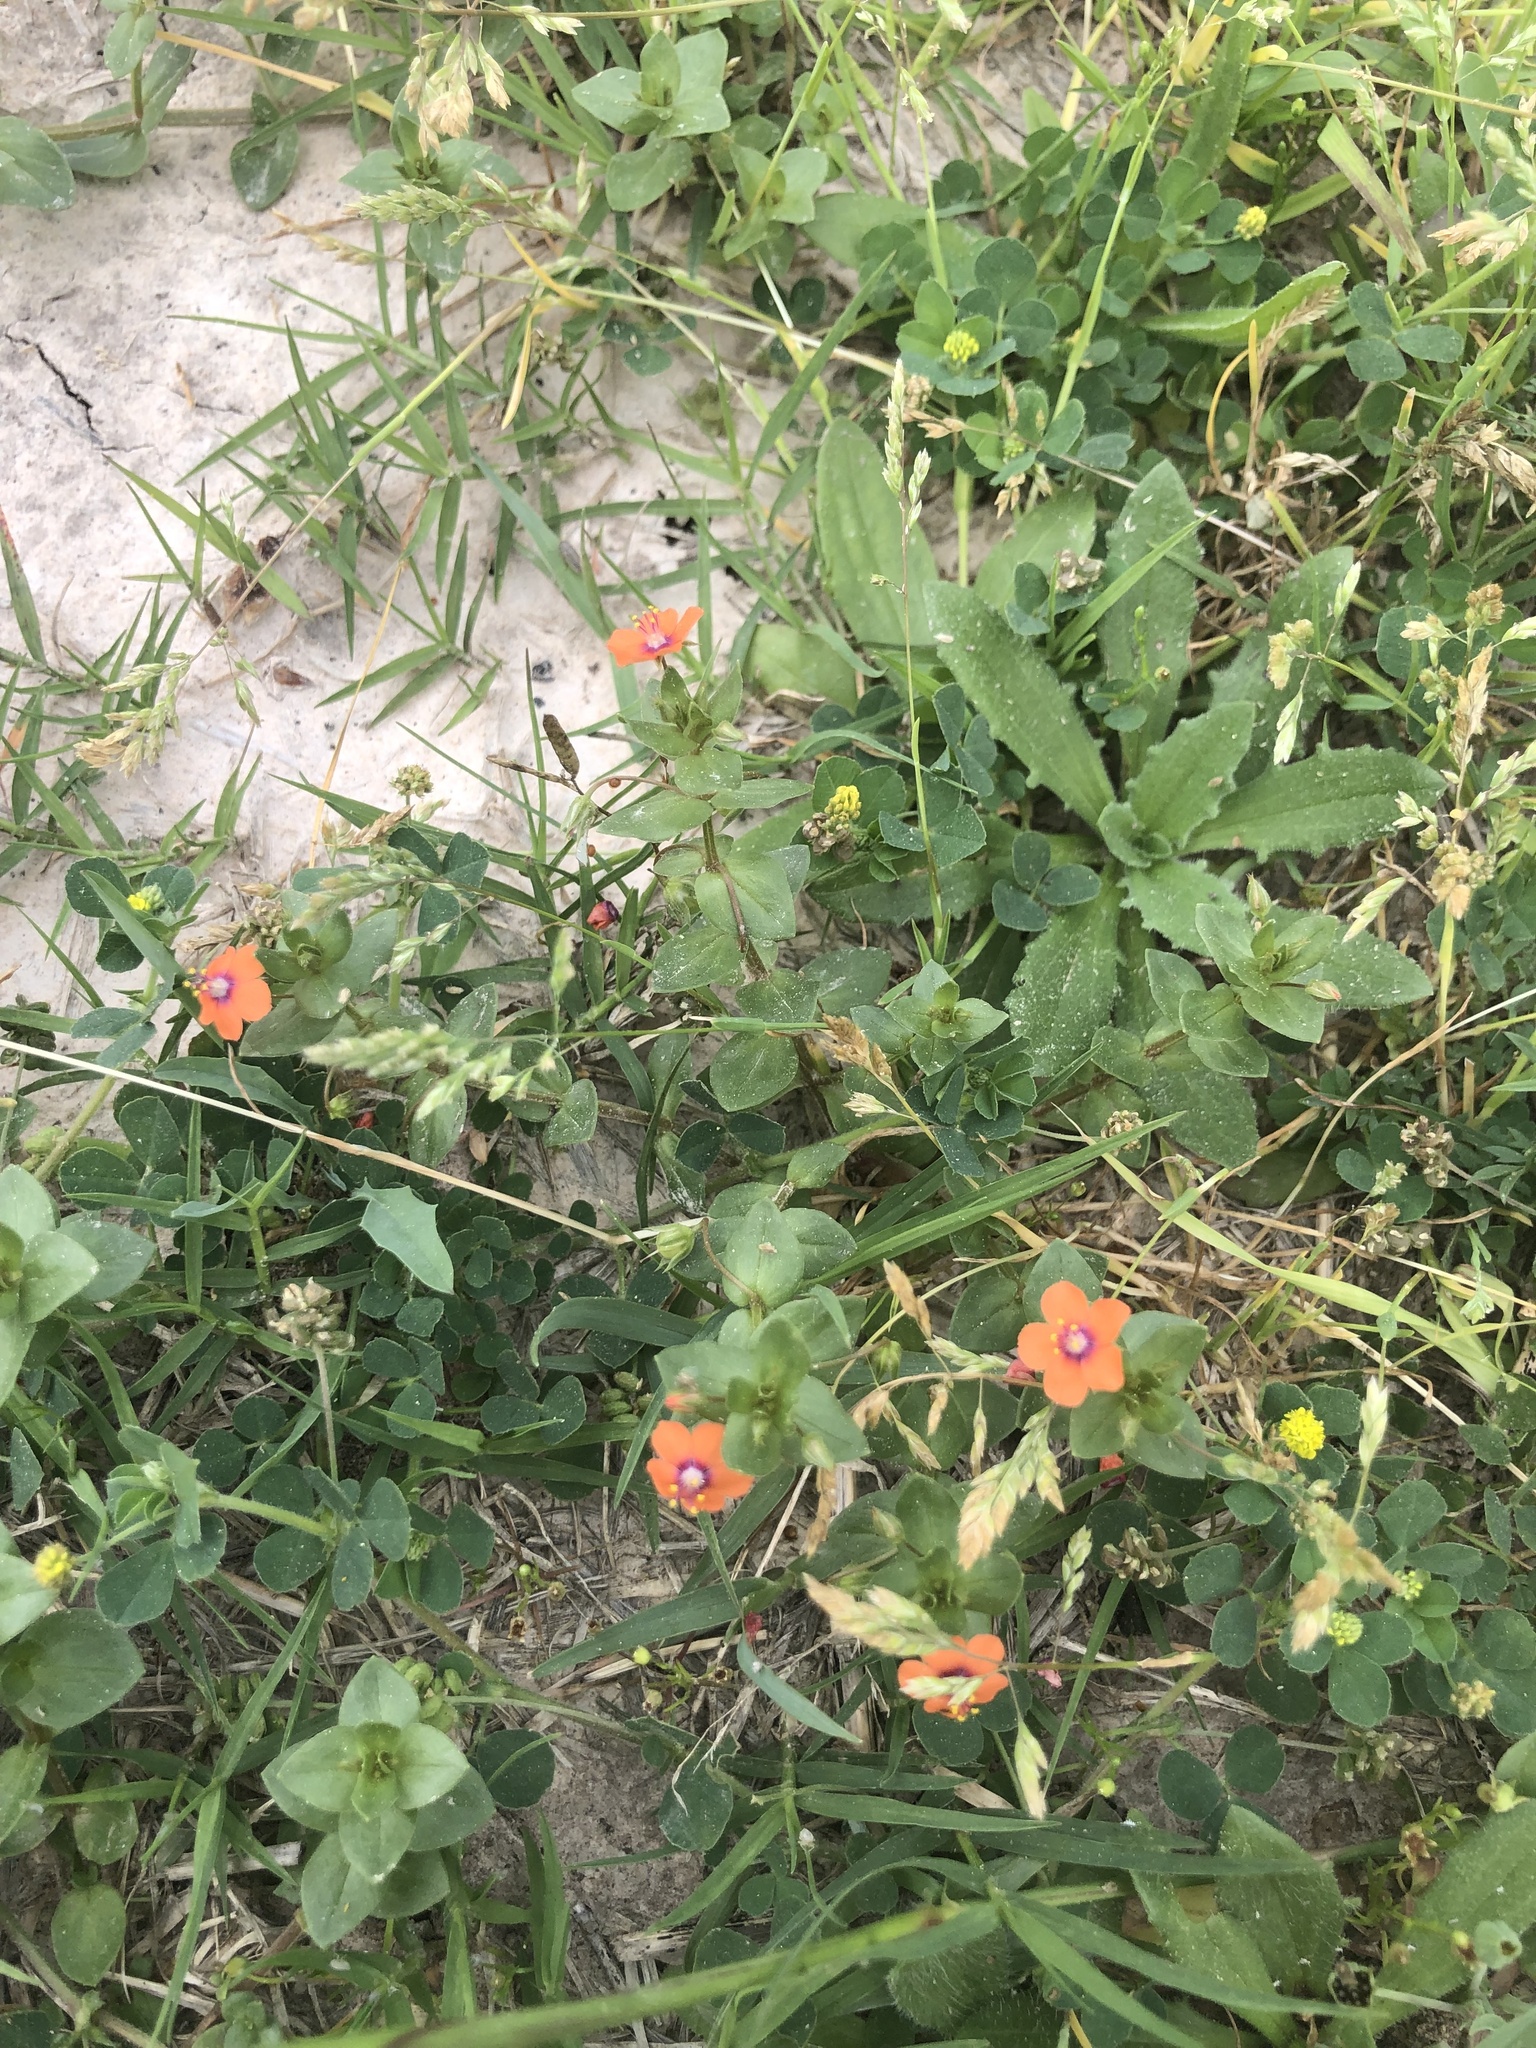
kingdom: Plantae
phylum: Tracheophyta
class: Magnoliopsida
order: Ericales
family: Primulaceae
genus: Lysimachia
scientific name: Lysimachia arvensis
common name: Scarlet pimpernel
